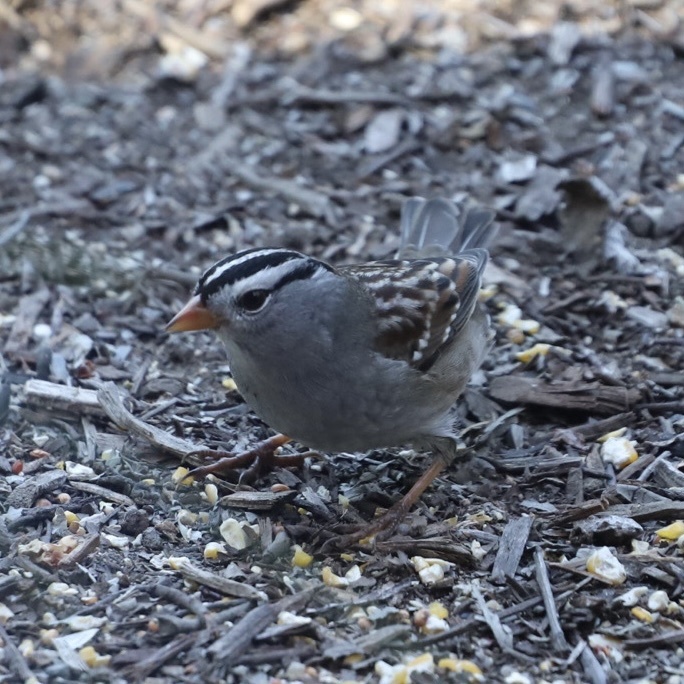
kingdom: Animalia
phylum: Chordata
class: Aves
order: Passeriformes
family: Passerellidae
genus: Zonotrichia
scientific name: Zonotrichia leucophrys
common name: White-crowned sparrow
